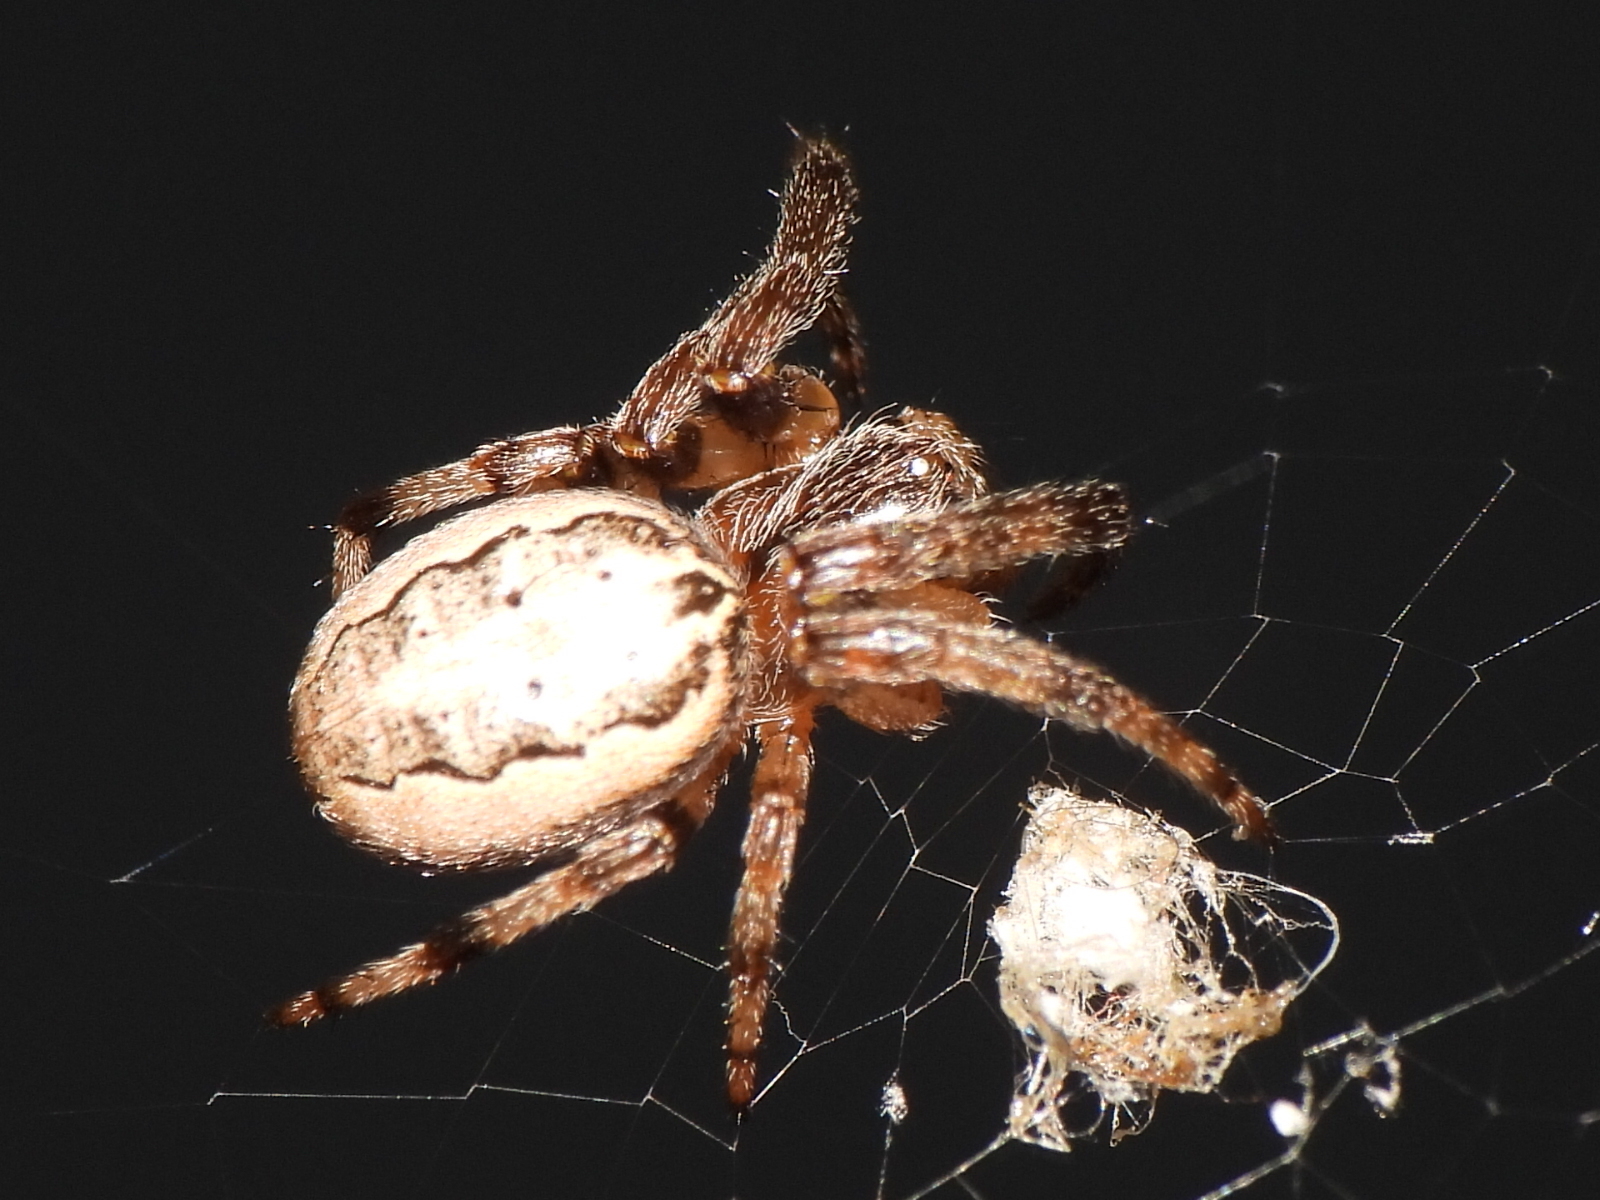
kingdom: Animalia
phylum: Arthropoda
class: Arachnida
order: Araneae
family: Araneidae
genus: Larinioides
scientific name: Larinioides cornutus
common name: Furrow orbweaver
